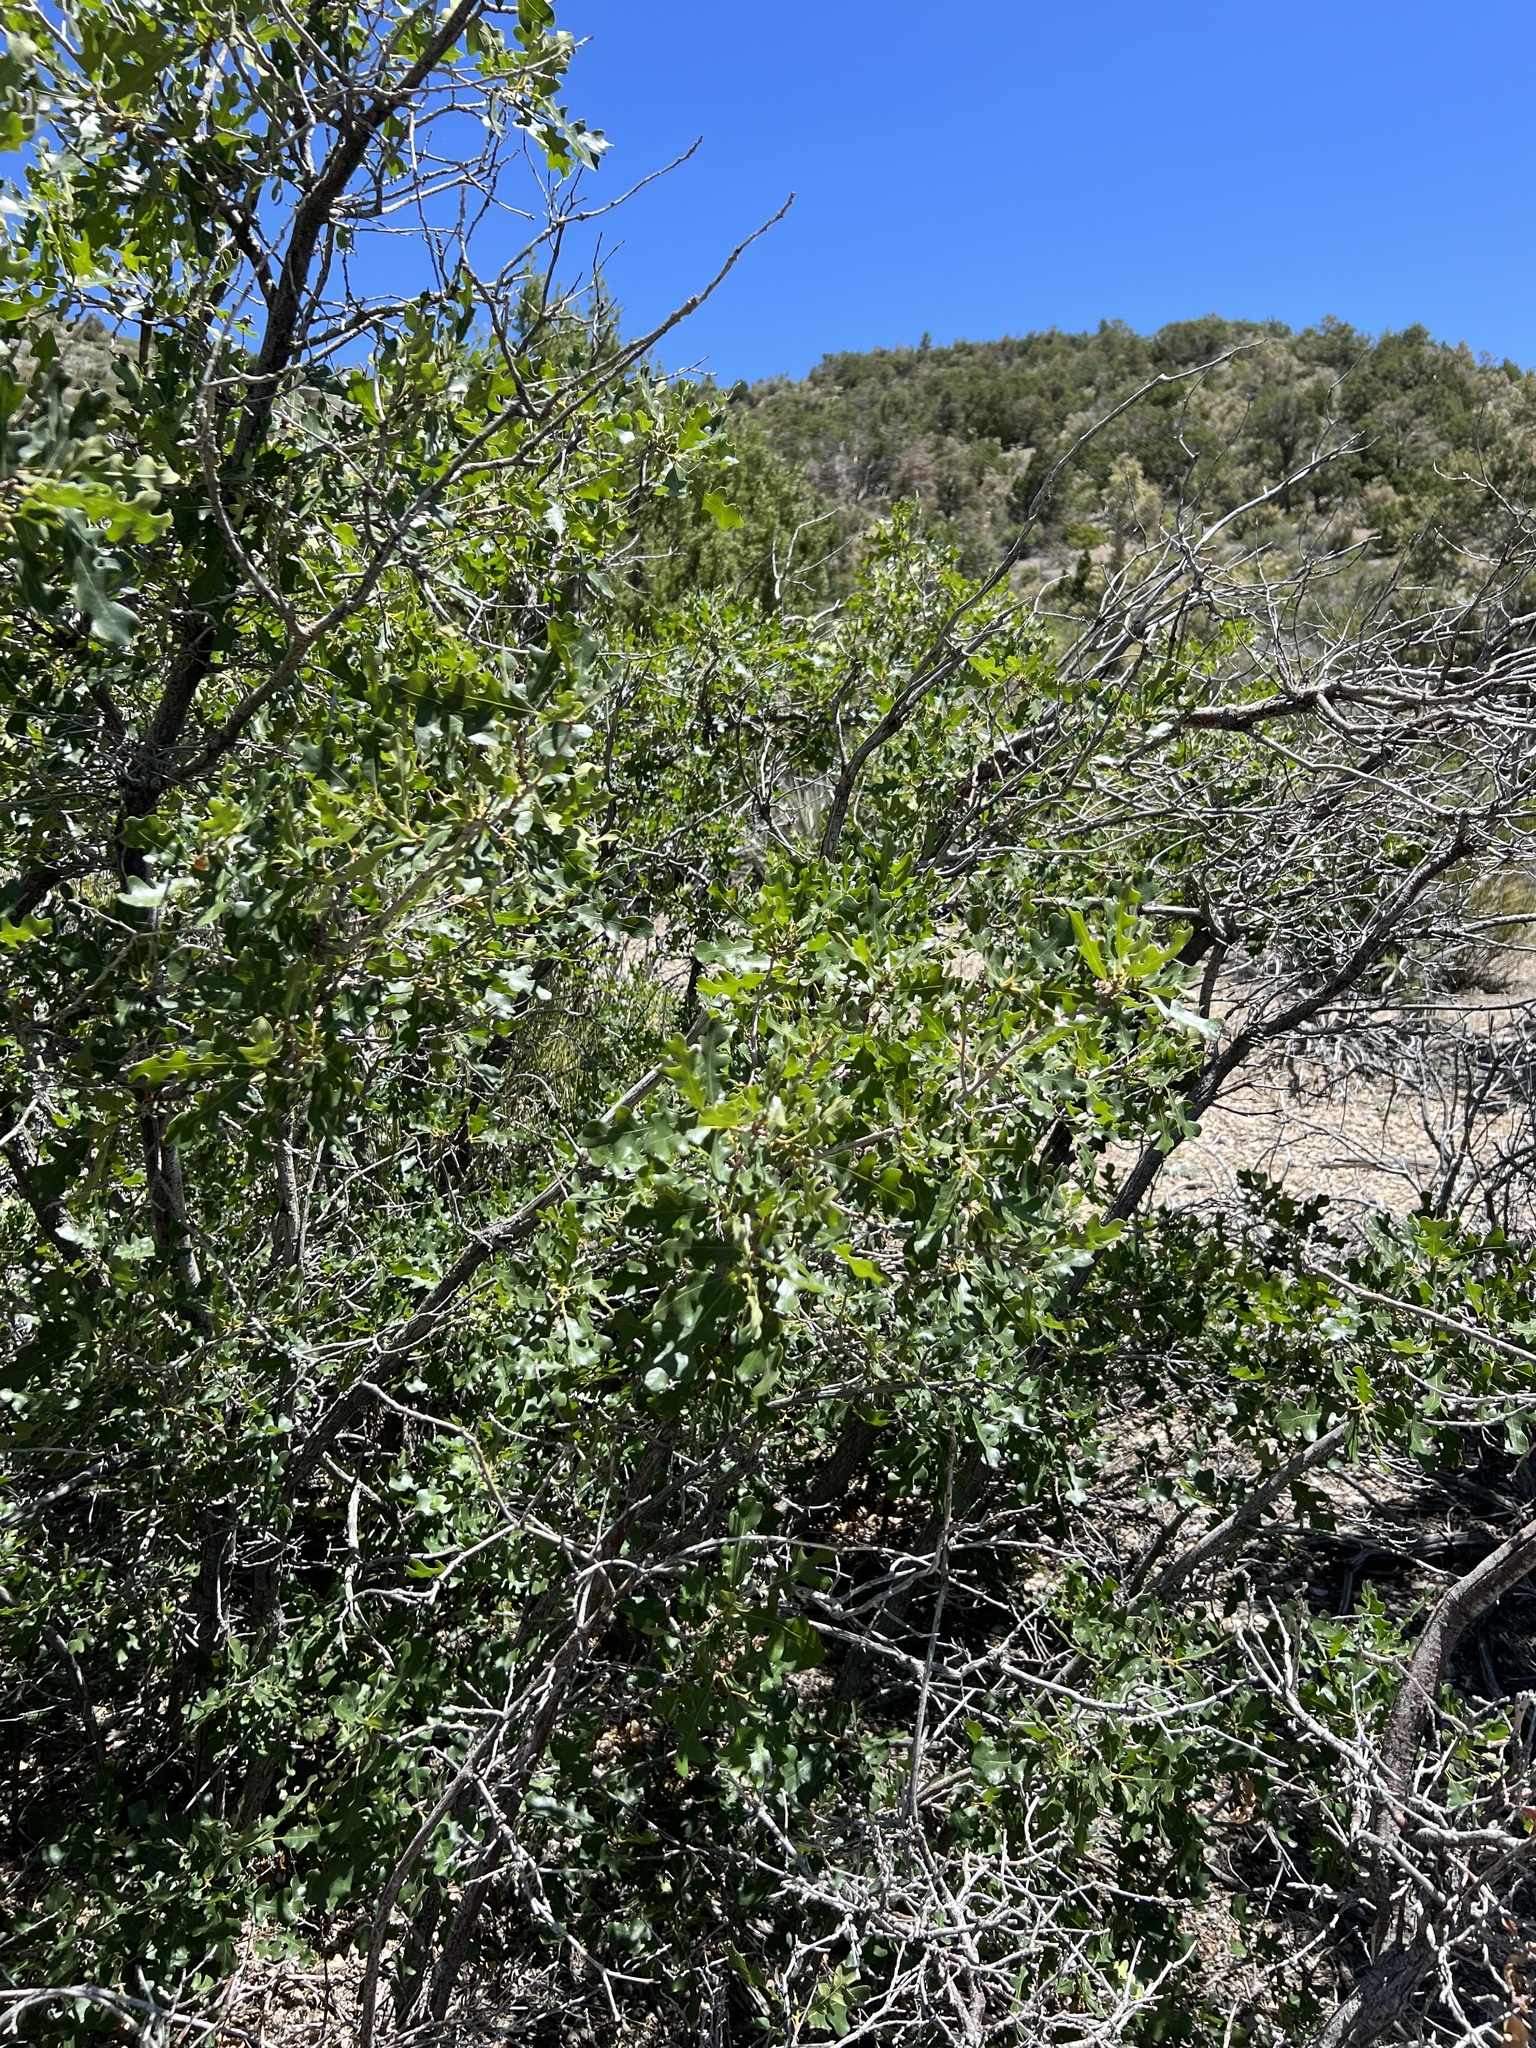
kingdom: Plantae
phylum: Tracheophyta
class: Magnoliopsida
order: Fagales
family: Fagaceae
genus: Quercus
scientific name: Quercus gambelii
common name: Gambel oak
